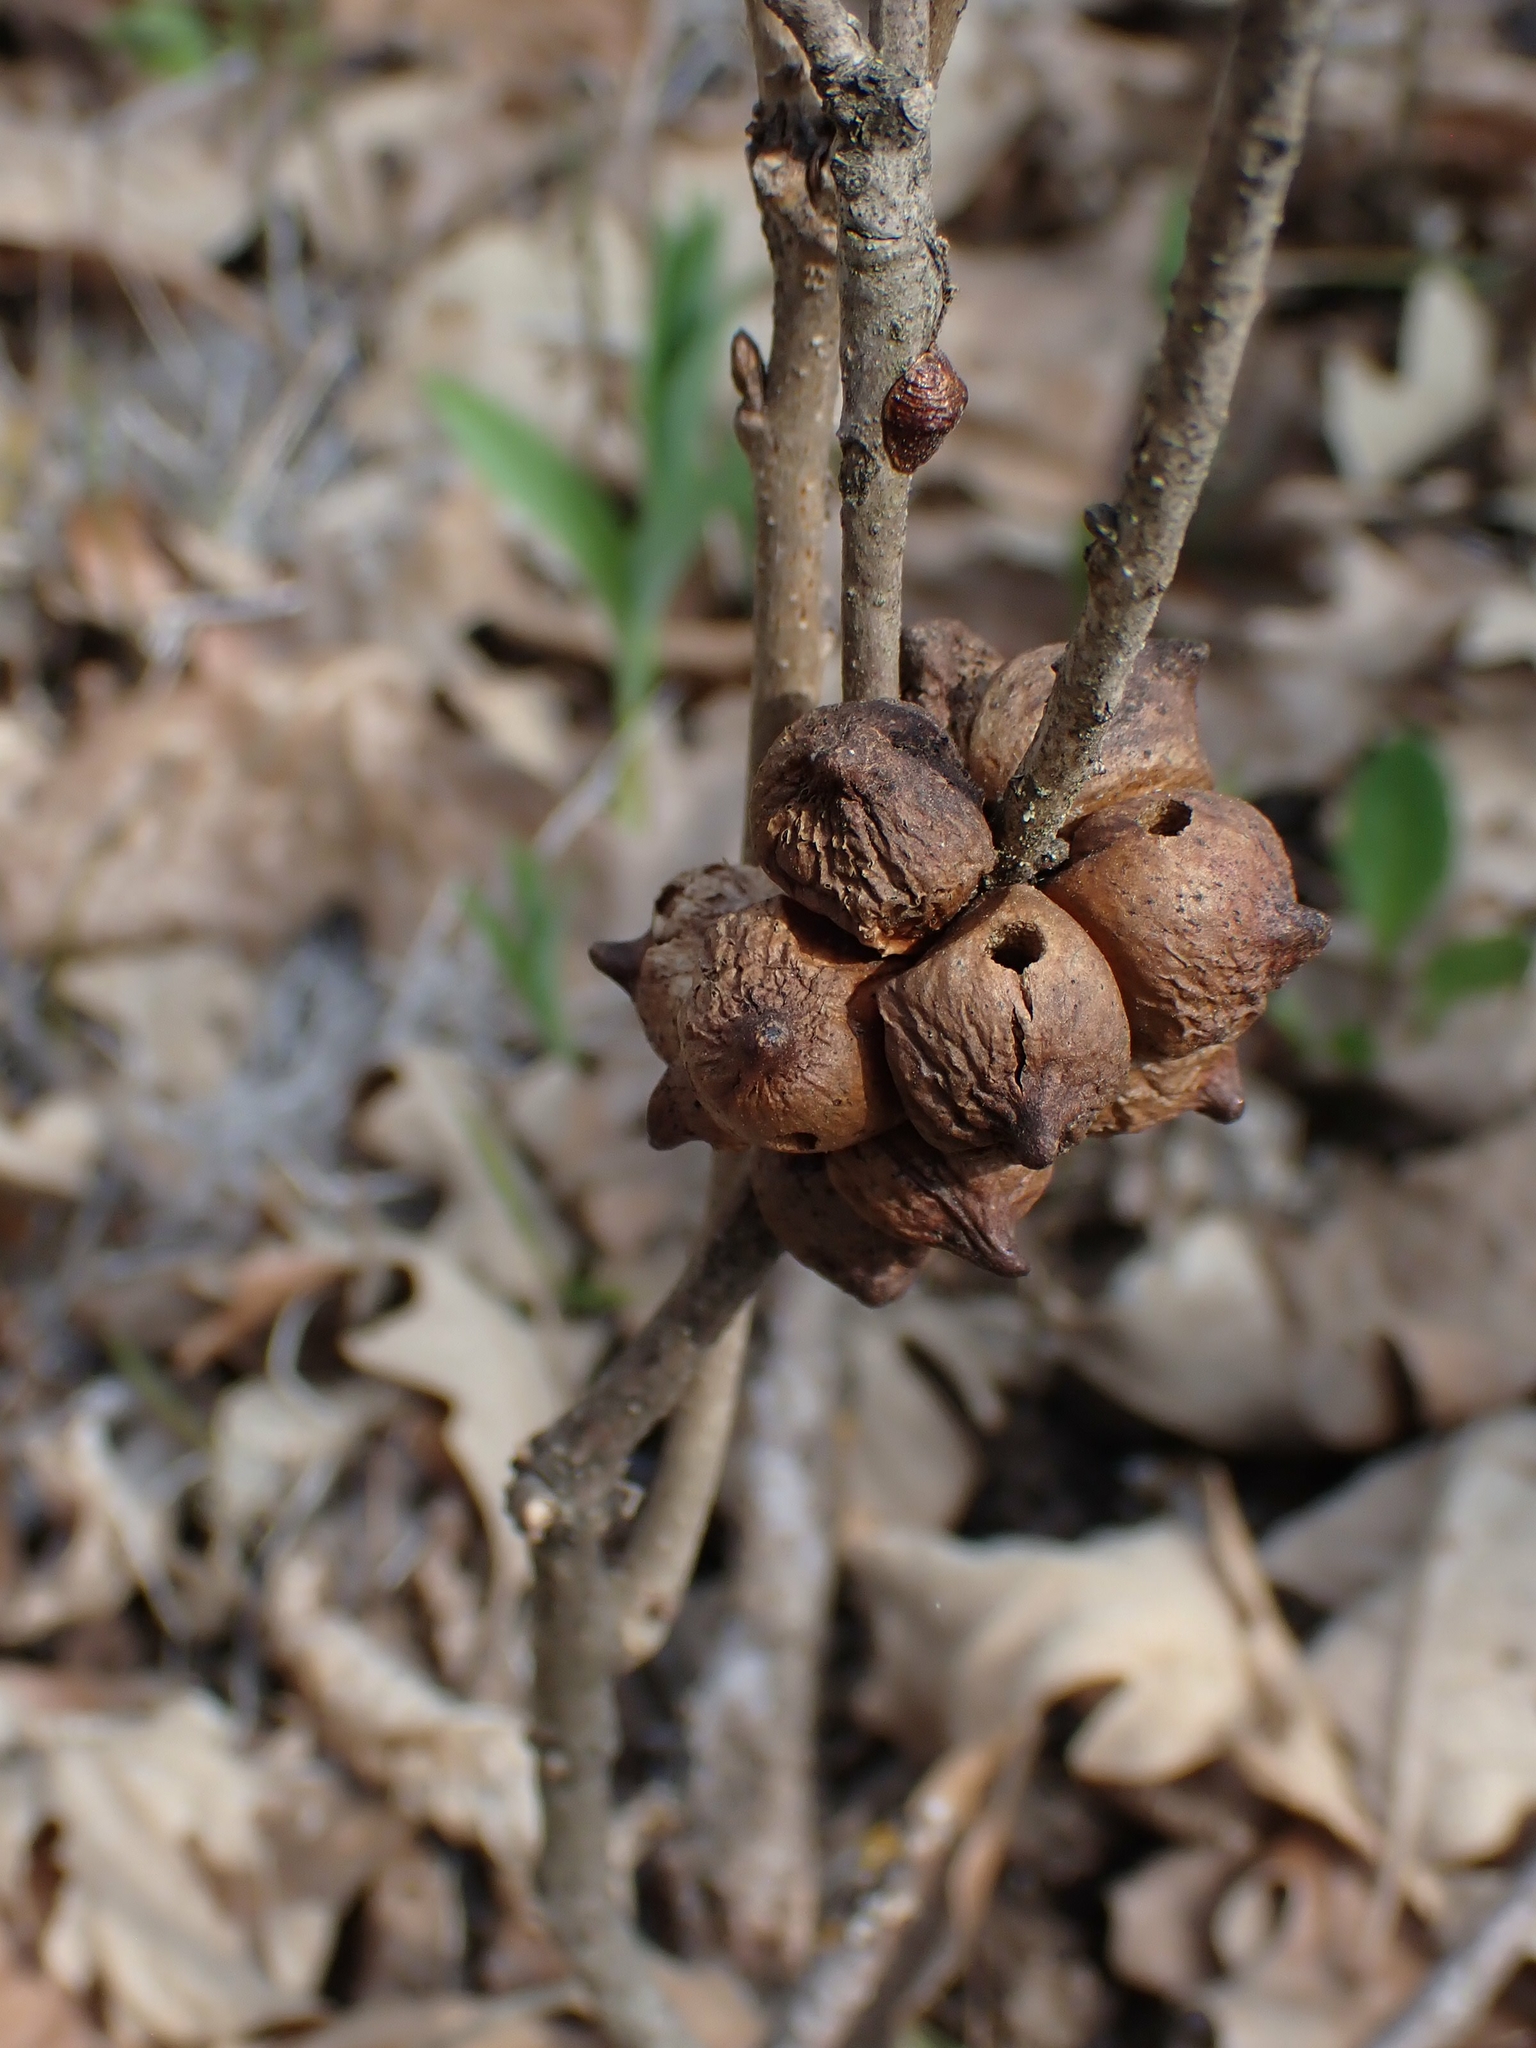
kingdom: Animalia
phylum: Arthropoda
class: Insecta
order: Hymenoptera
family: Cynipidae
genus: Disholcaspis
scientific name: Disholcaspis
